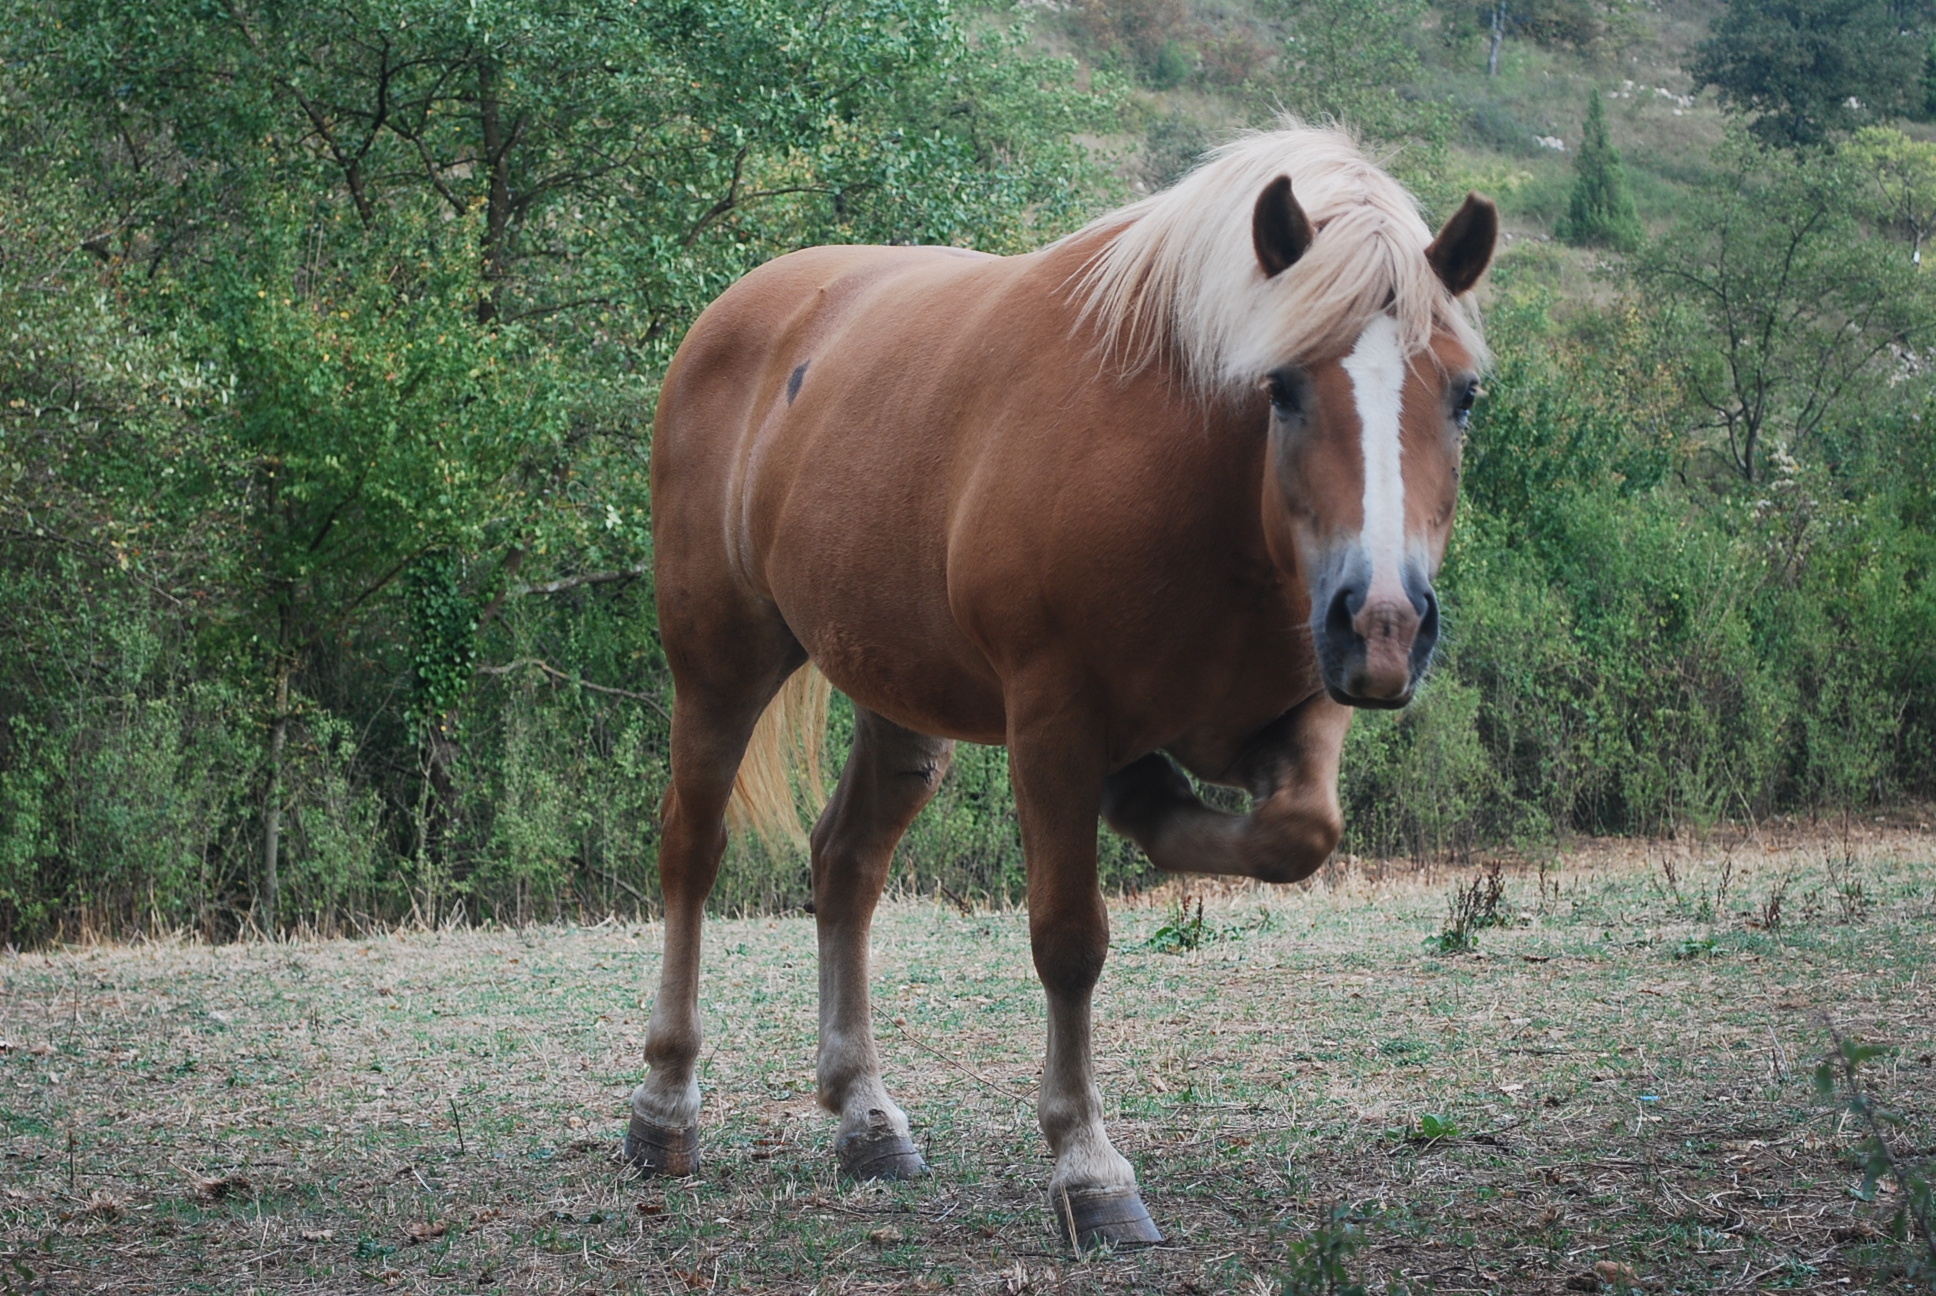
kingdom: Animalia
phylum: Chordata
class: Mammalia
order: Perissodactyla
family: Equidae
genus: Equus
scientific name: Equus caballus
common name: Horse
